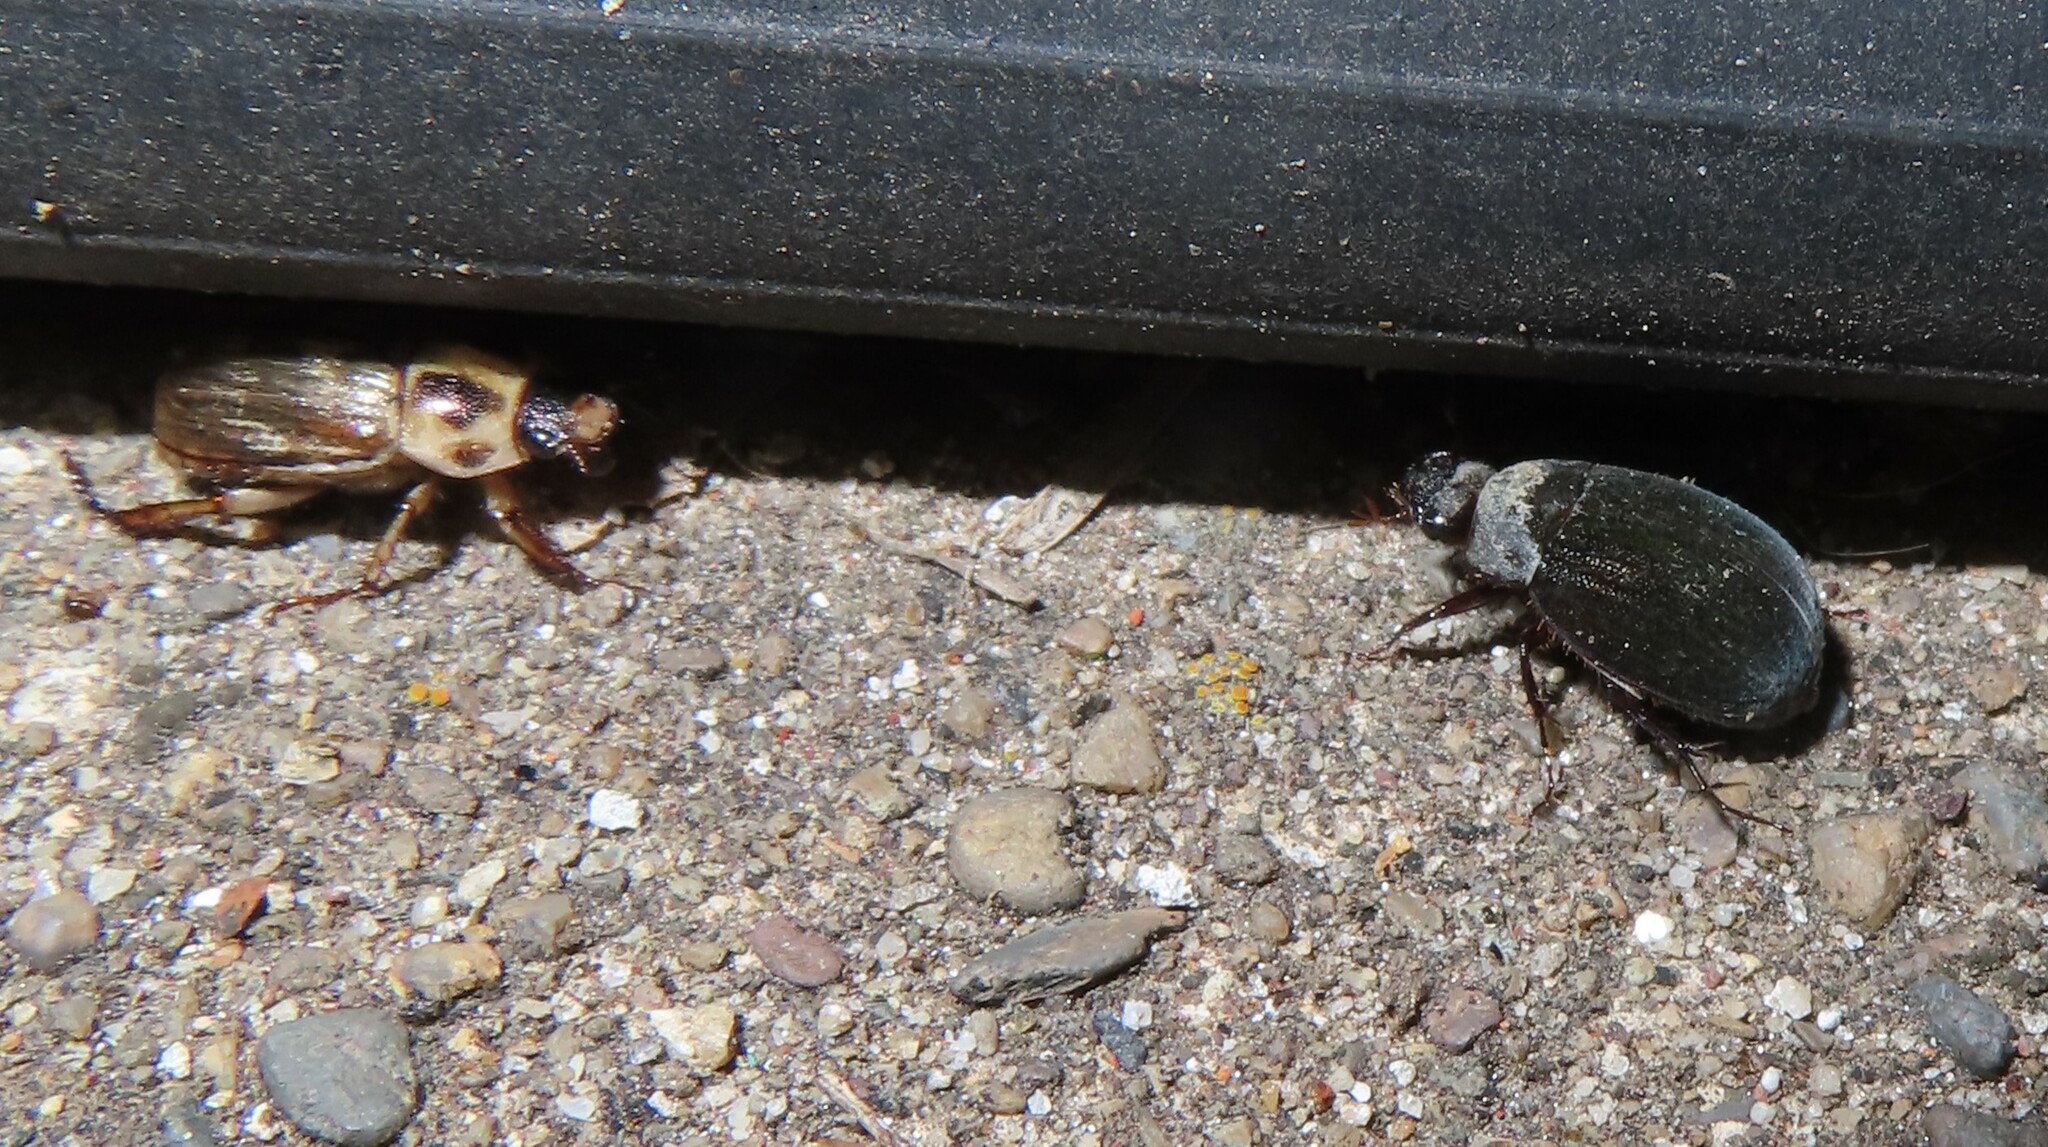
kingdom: Animalia
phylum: Arthropoda
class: Insecta
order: Coleoptera
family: Scarabaeidae
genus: Exomala
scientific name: Exomala orientalis
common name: Oriental beetle
